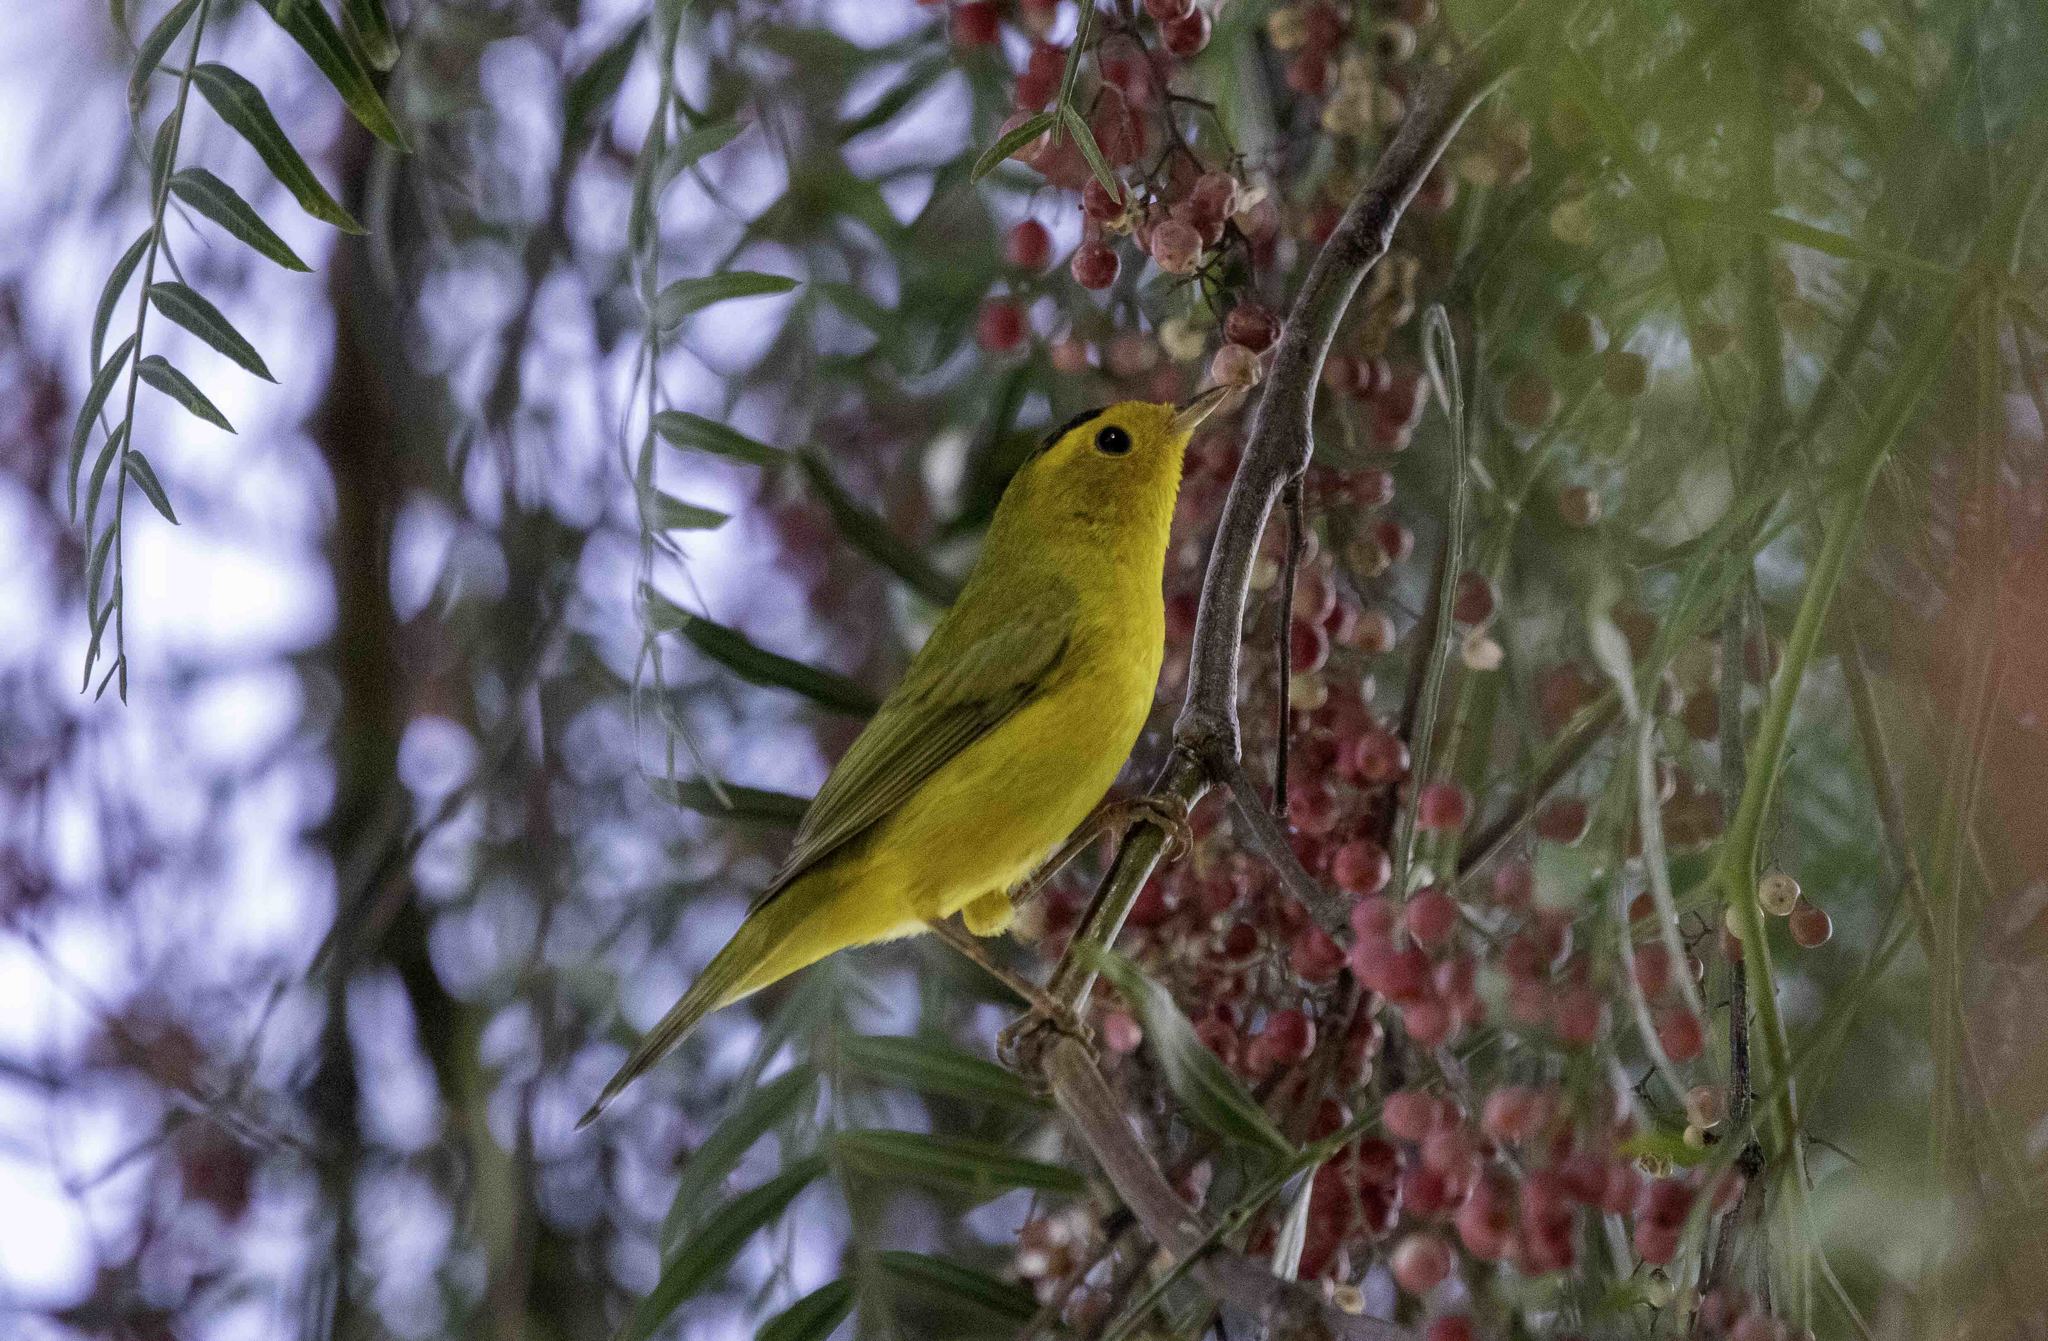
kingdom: Animalia
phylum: Chordata
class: Aves
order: Passeriformes
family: Parulidae
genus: Cardellina
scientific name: Cardellina pusilla
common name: Wilson's warbler
